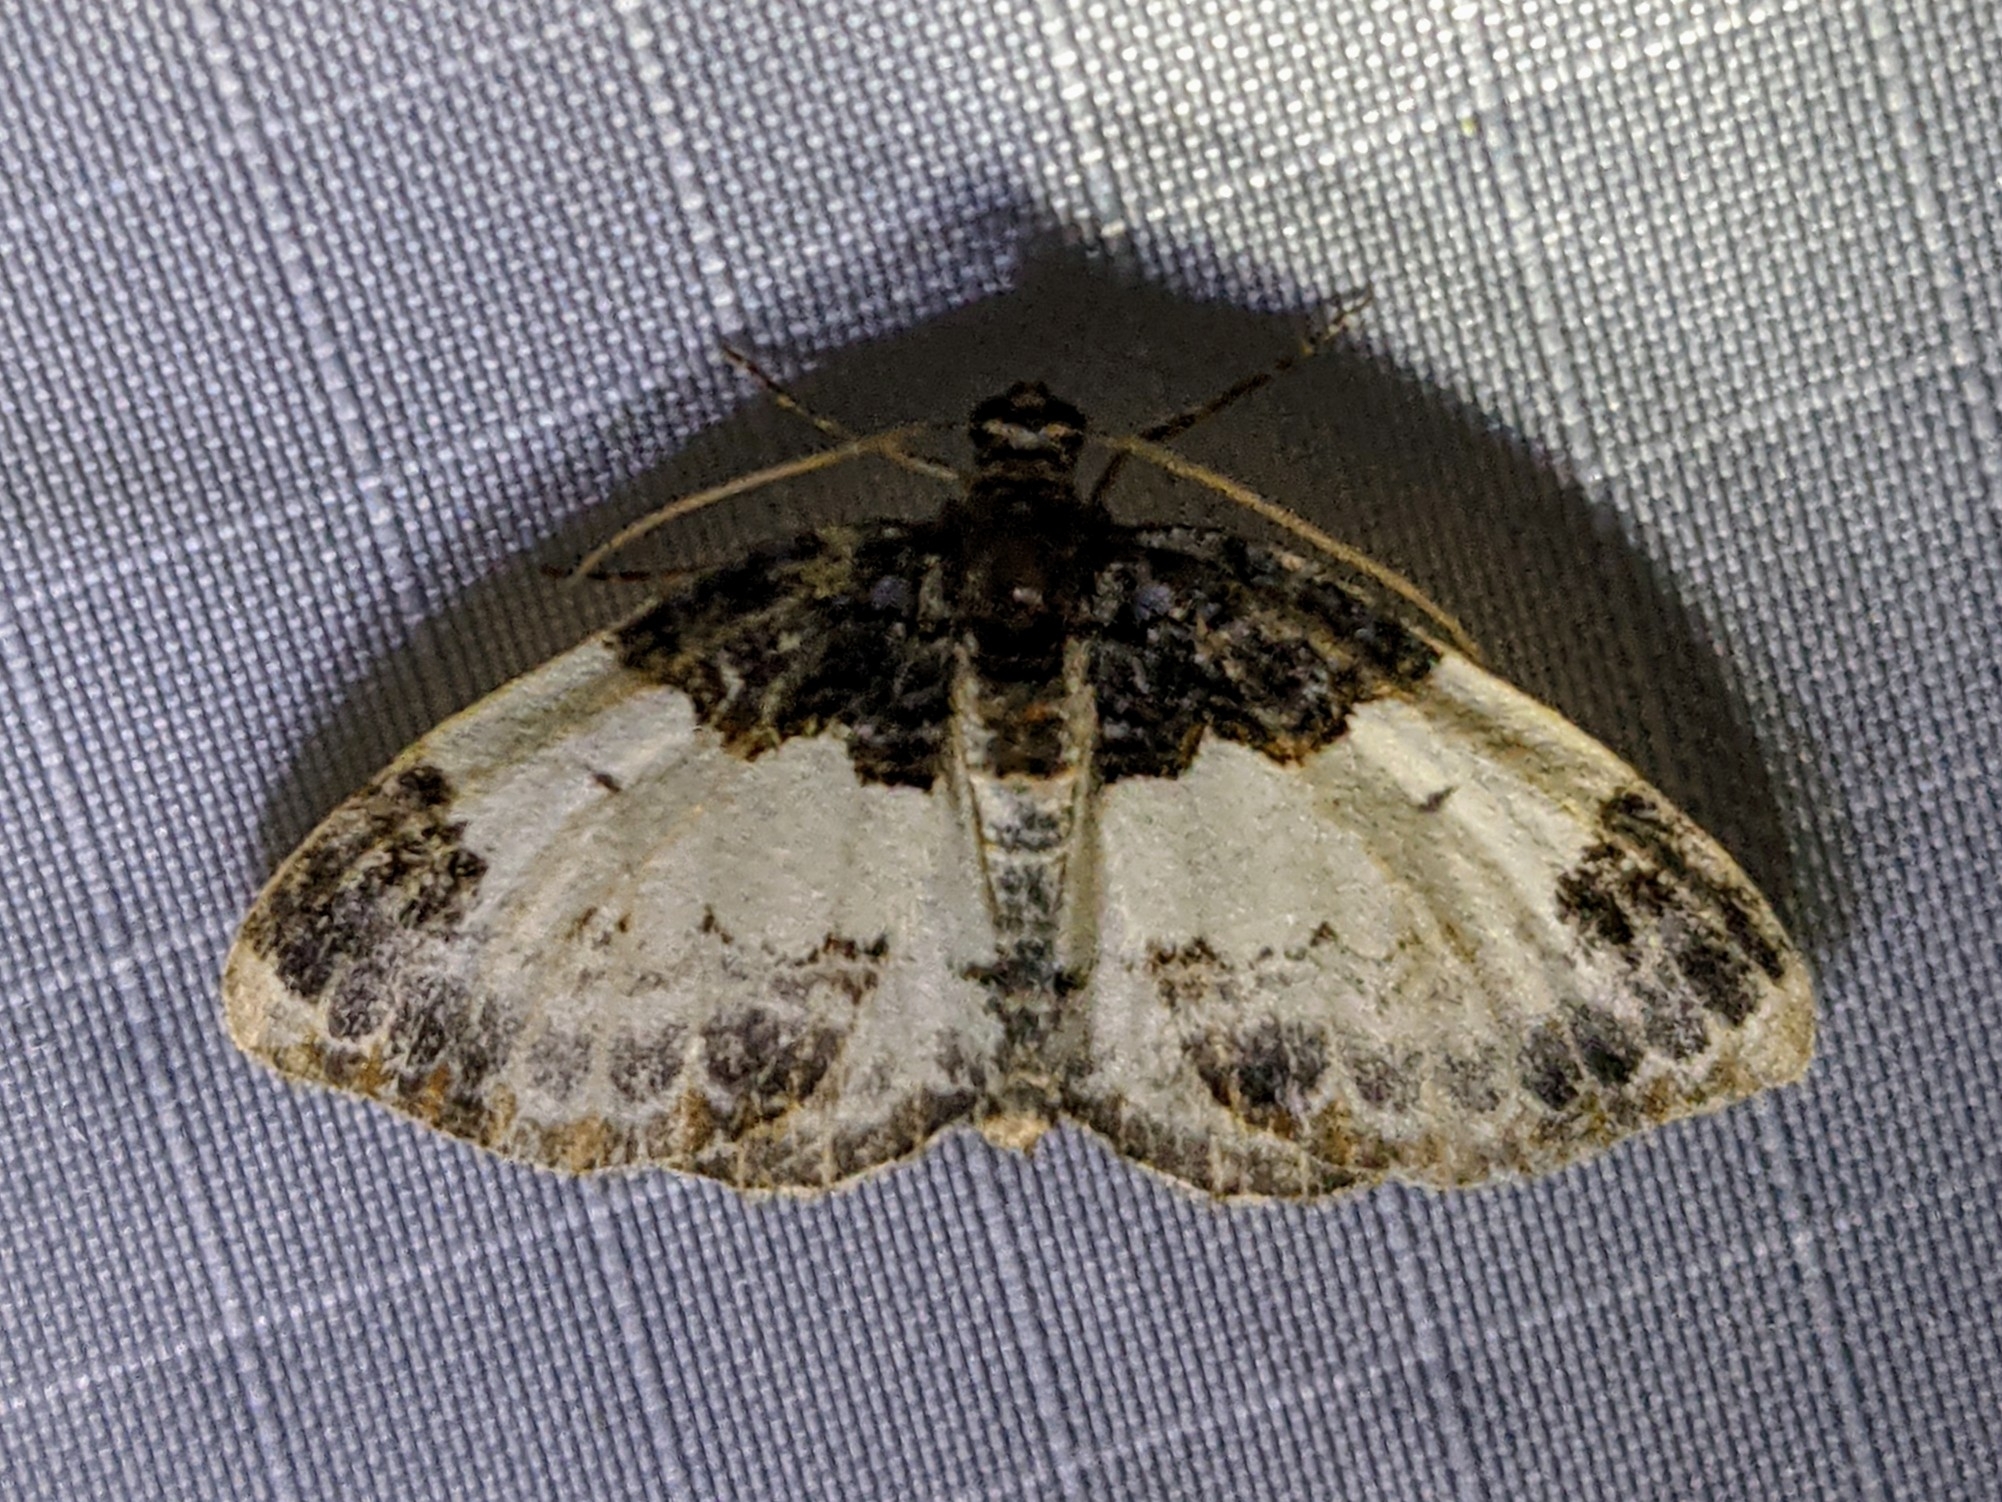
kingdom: Animalia
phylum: Arthropoda
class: Insecta
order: Lepidoptera
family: Geometridae
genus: Mesoleuca
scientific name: Mesoleuca ruficillata
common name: White-ribboned carpet moth
